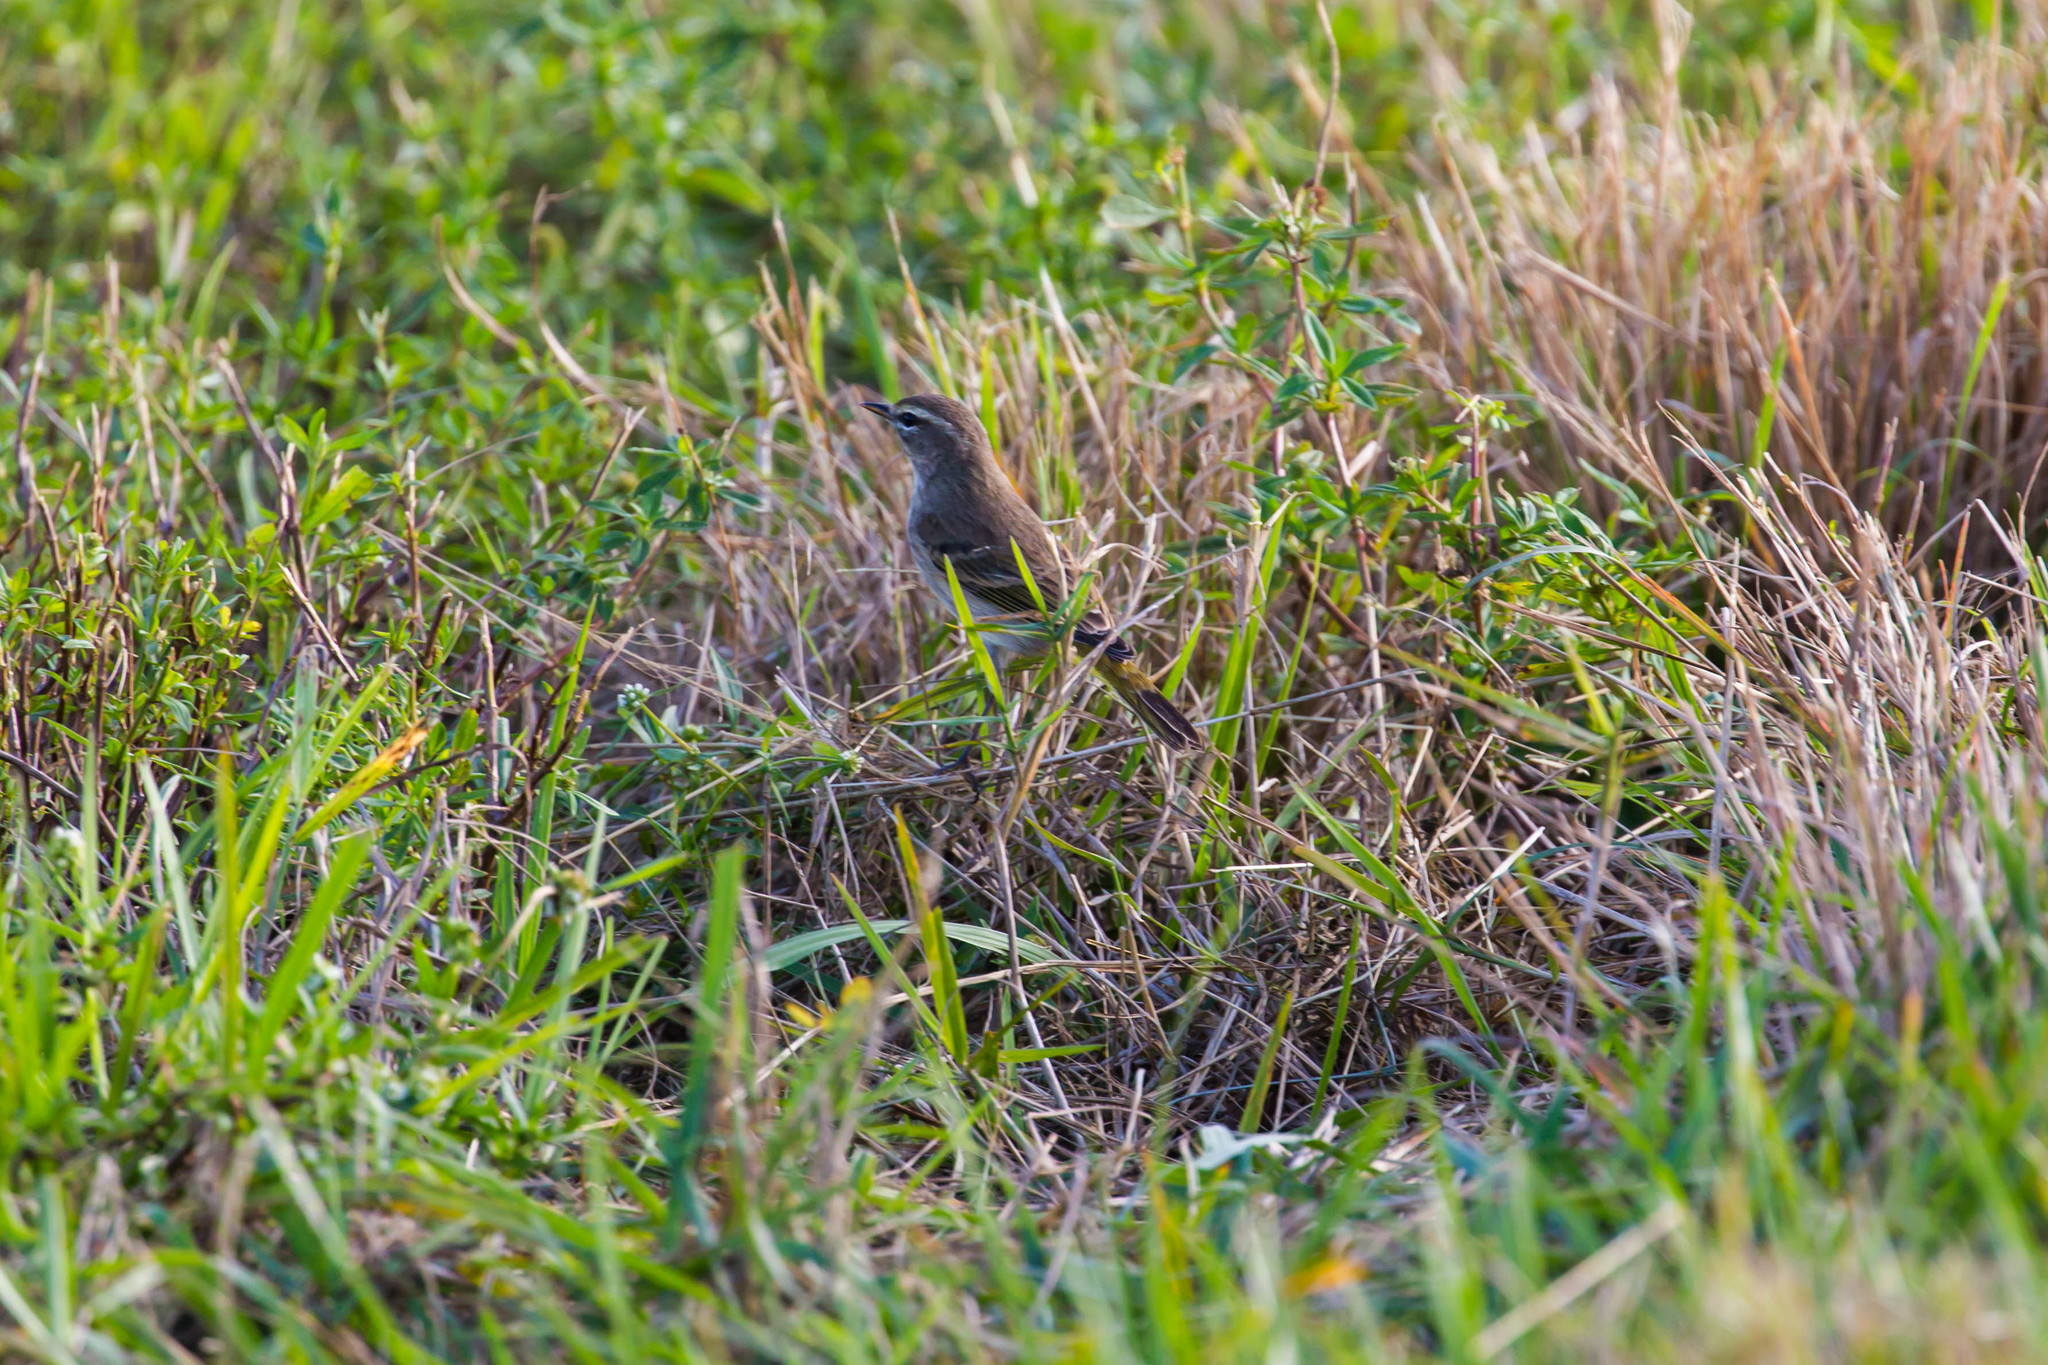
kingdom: Animalia
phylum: Chordata
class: Aves
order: Passeriformes
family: Parulidae
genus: Setophaga
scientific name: Setophaga palmarum
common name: Palm warbler
